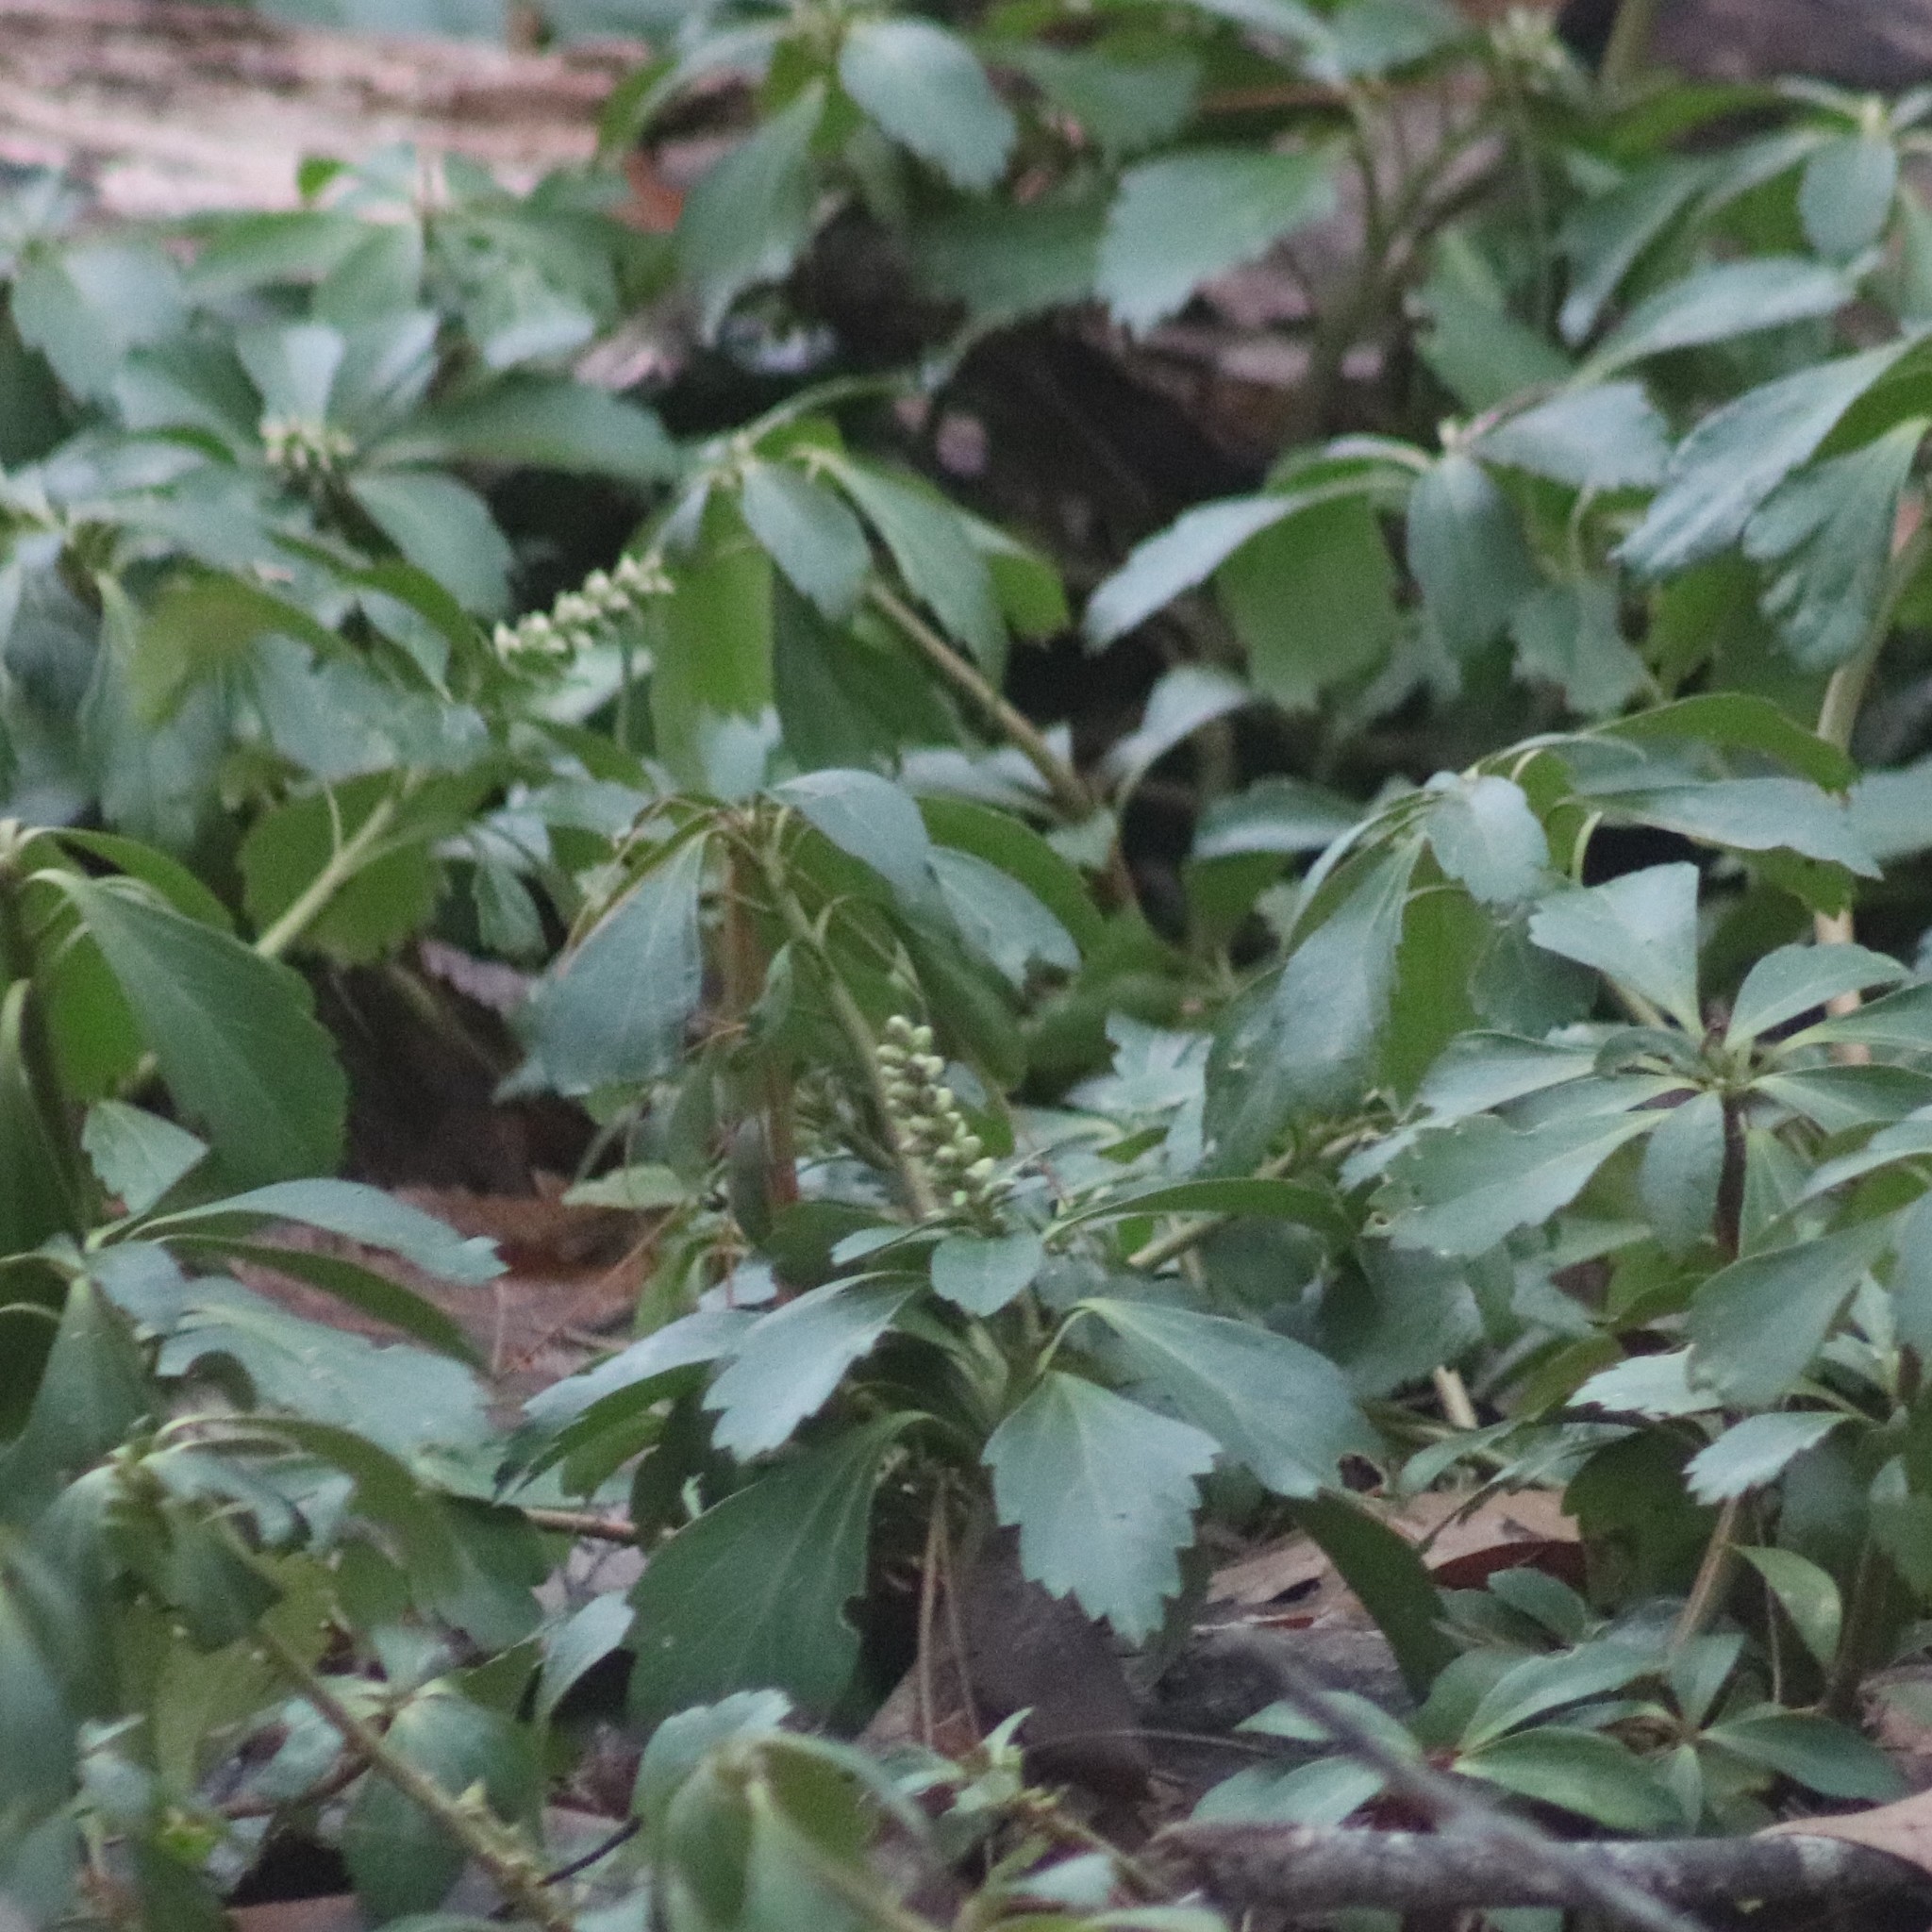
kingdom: Plantae
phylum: Tracheophyta
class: Magnoliopsida
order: Buxales
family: Buxaceae
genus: Pachysandra
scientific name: Pachysandra terminalis
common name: Japanese pachysandra
